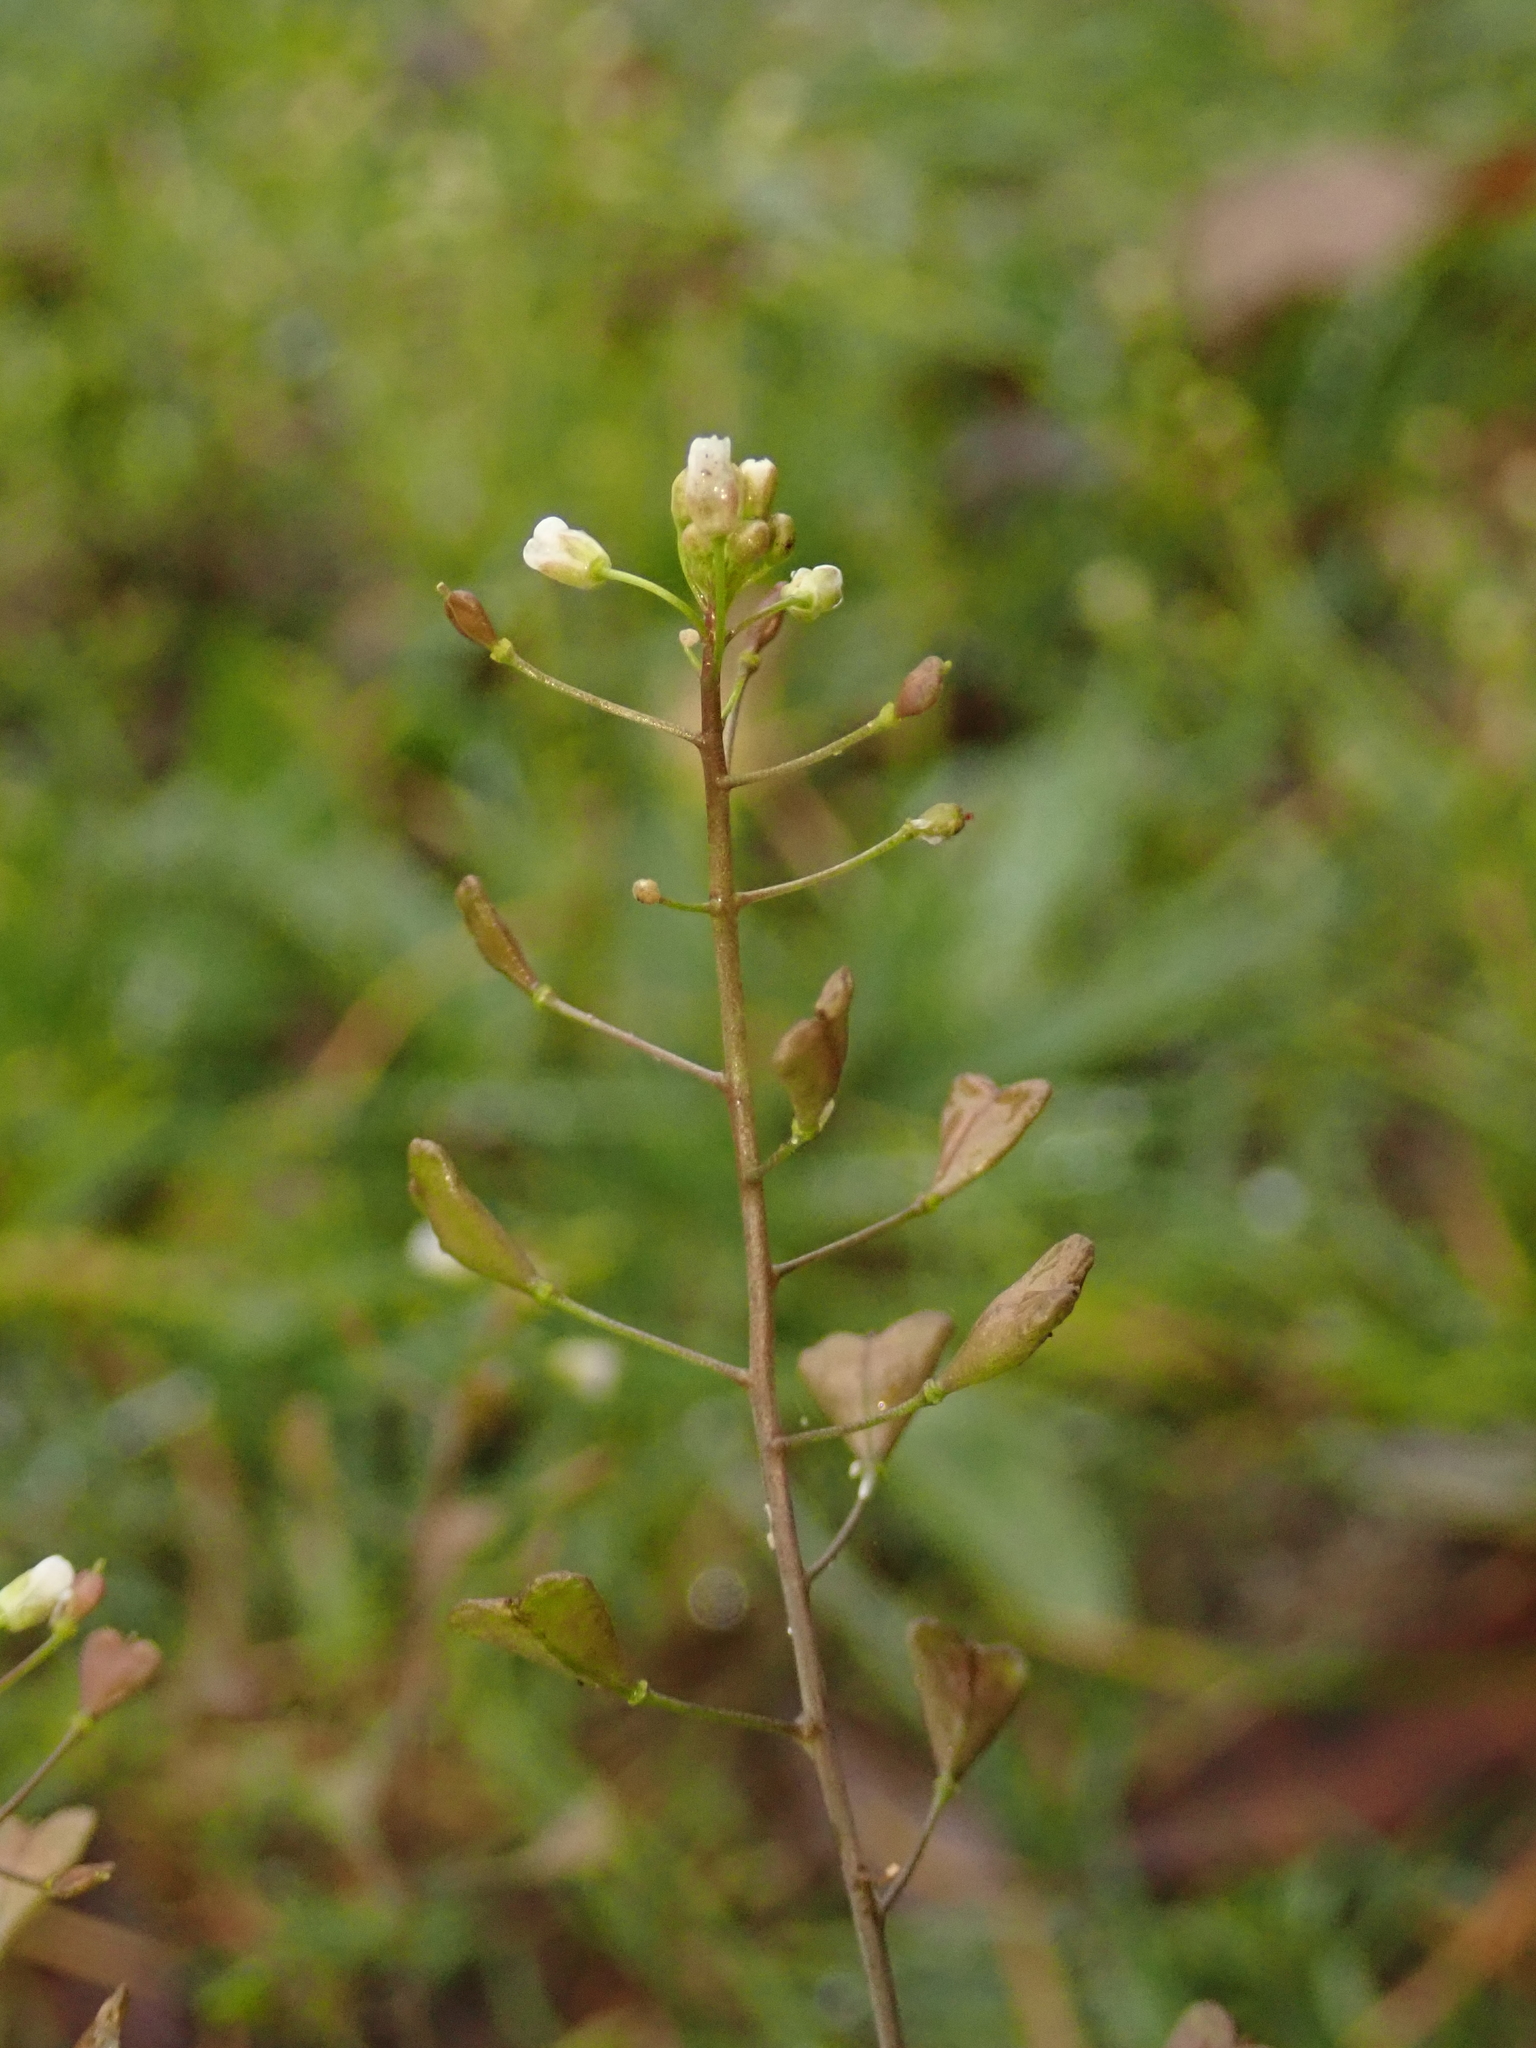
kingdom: Plantae
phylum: Tracheophyta
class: Magnoliopsida
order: Brassicales
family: Brassicaceae
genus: Capsella
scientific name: Capsella bursa-pastoris
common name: Shepherd's purse
